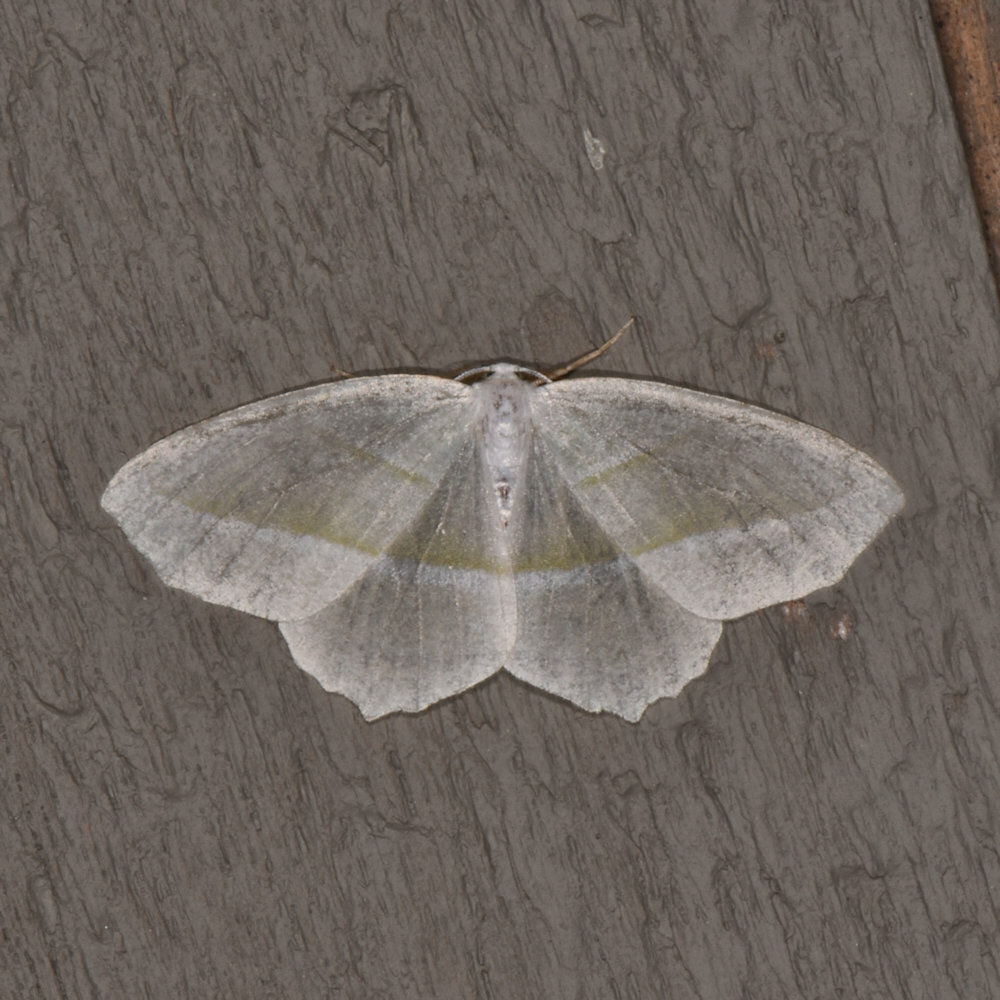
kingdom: Animalia
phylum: Arthropoda
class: Insecta
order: Lepidoptera
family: Geometridae
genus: Campaea
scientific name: Campaea perlata
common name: Fringed looper
